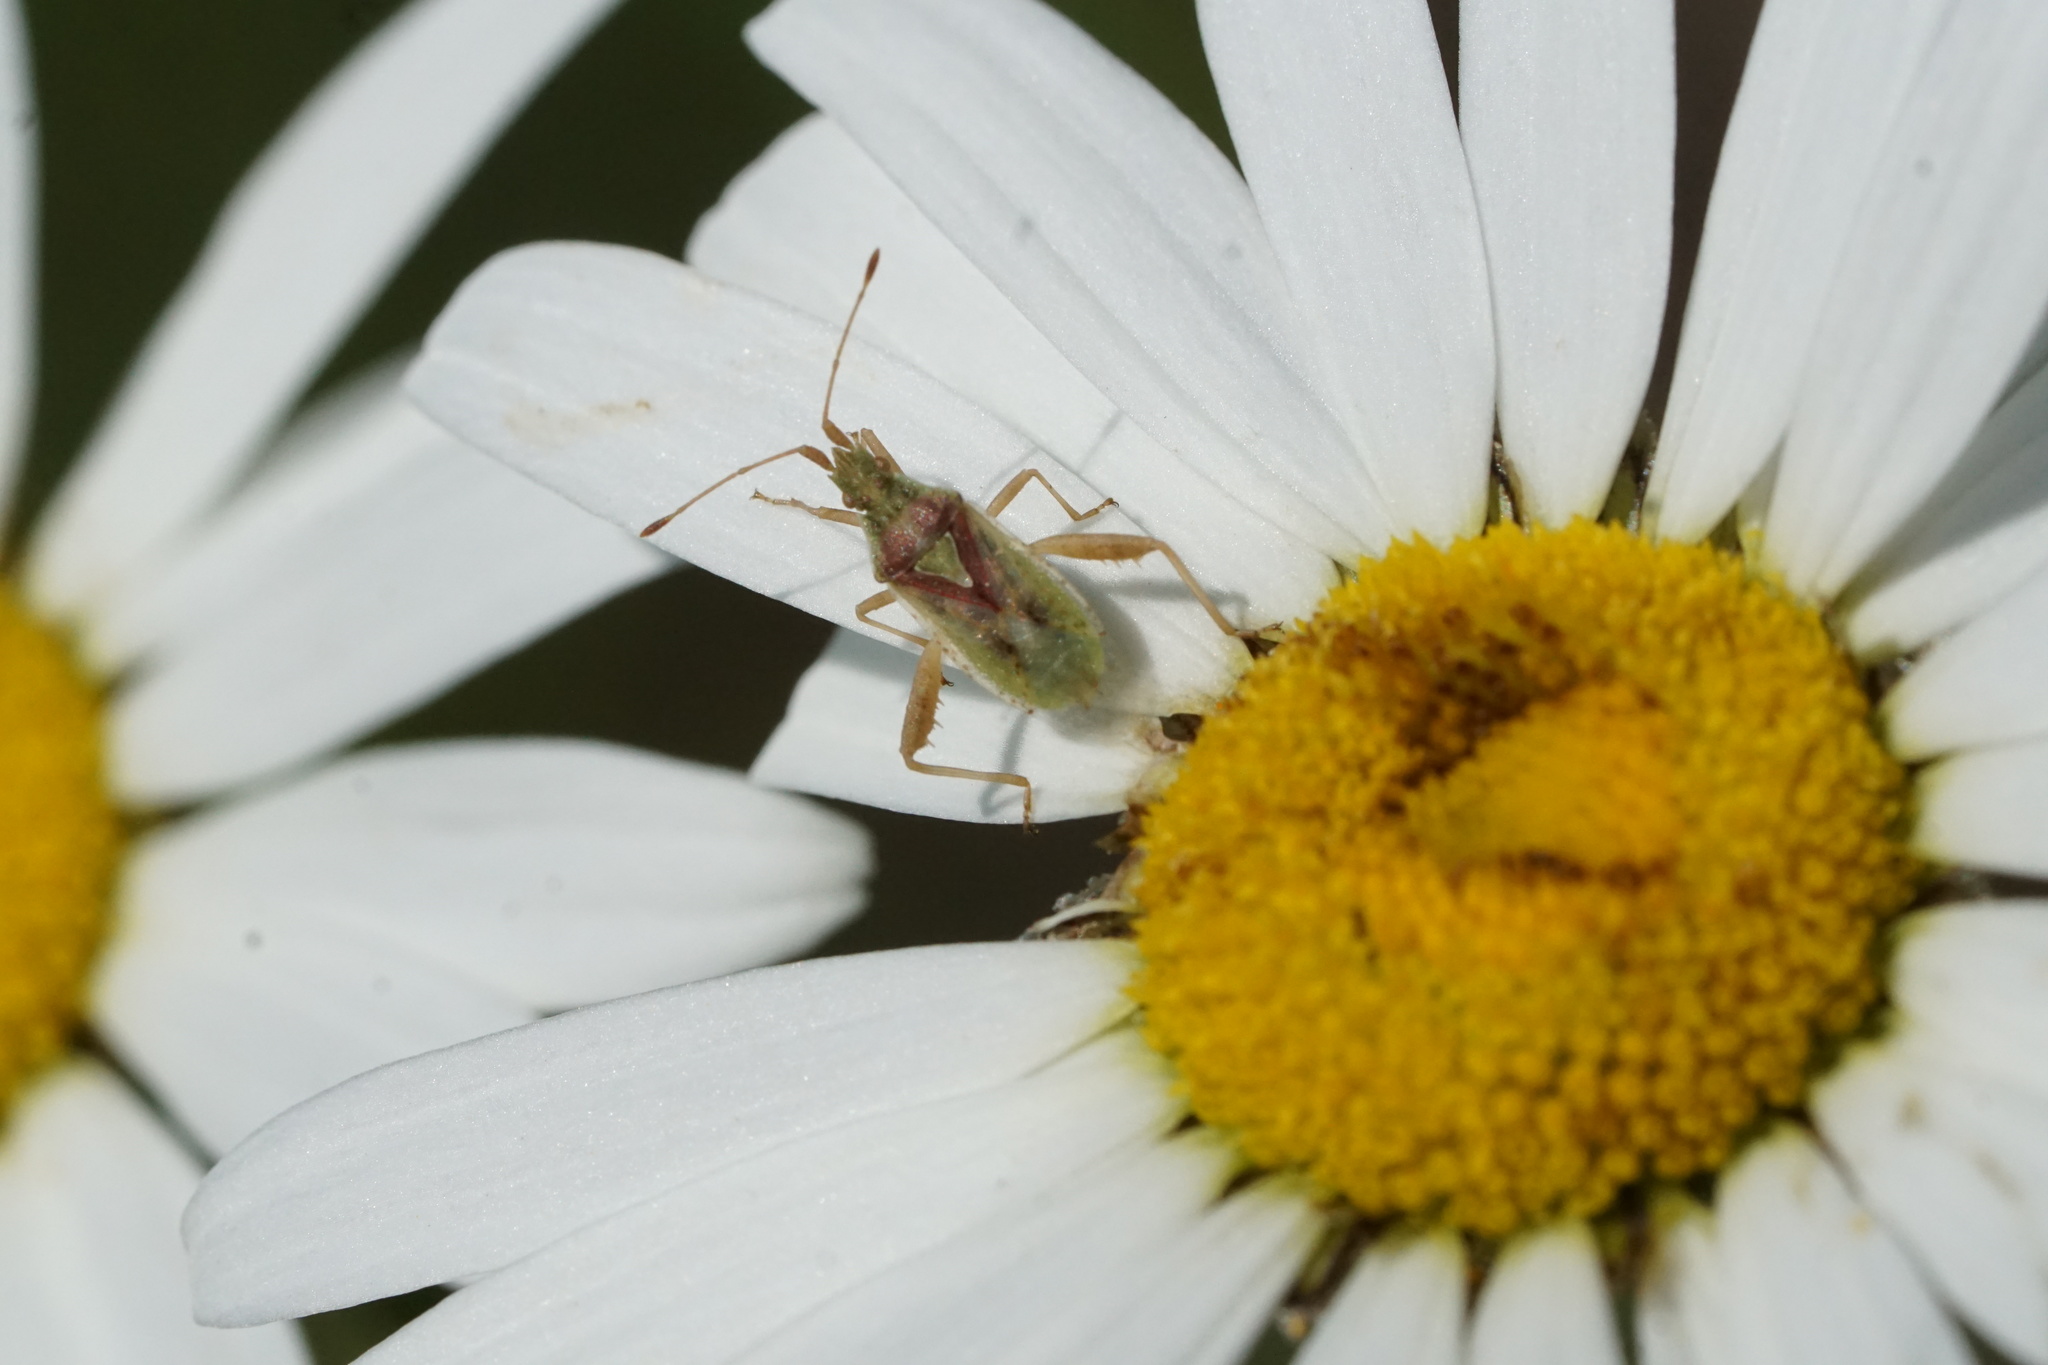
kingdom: Animalia
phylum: Arthropoda
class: Insecta
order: Hemiptera
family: Rhopalidae
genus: Harmostes
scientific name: Harmostes reflexulus
